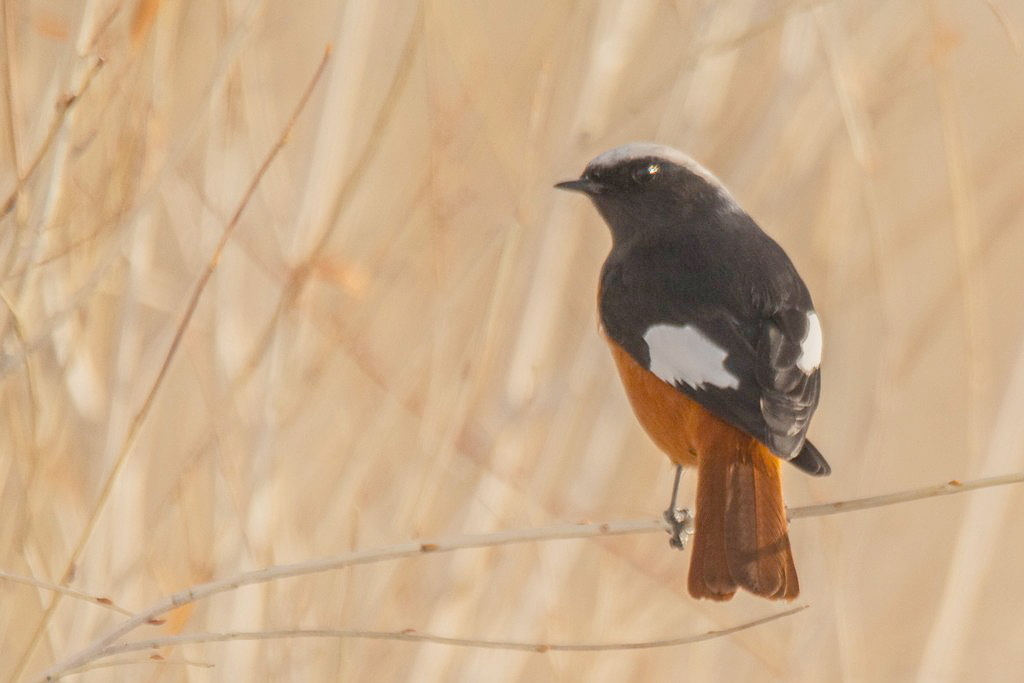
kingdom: Animalia
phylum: Chordata
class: Aves
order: Passeriformes
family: Muscicapidae
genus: Phoenicurus
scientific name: Phoenicurus erythrogastrus
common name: Güldenstädt's redstart
